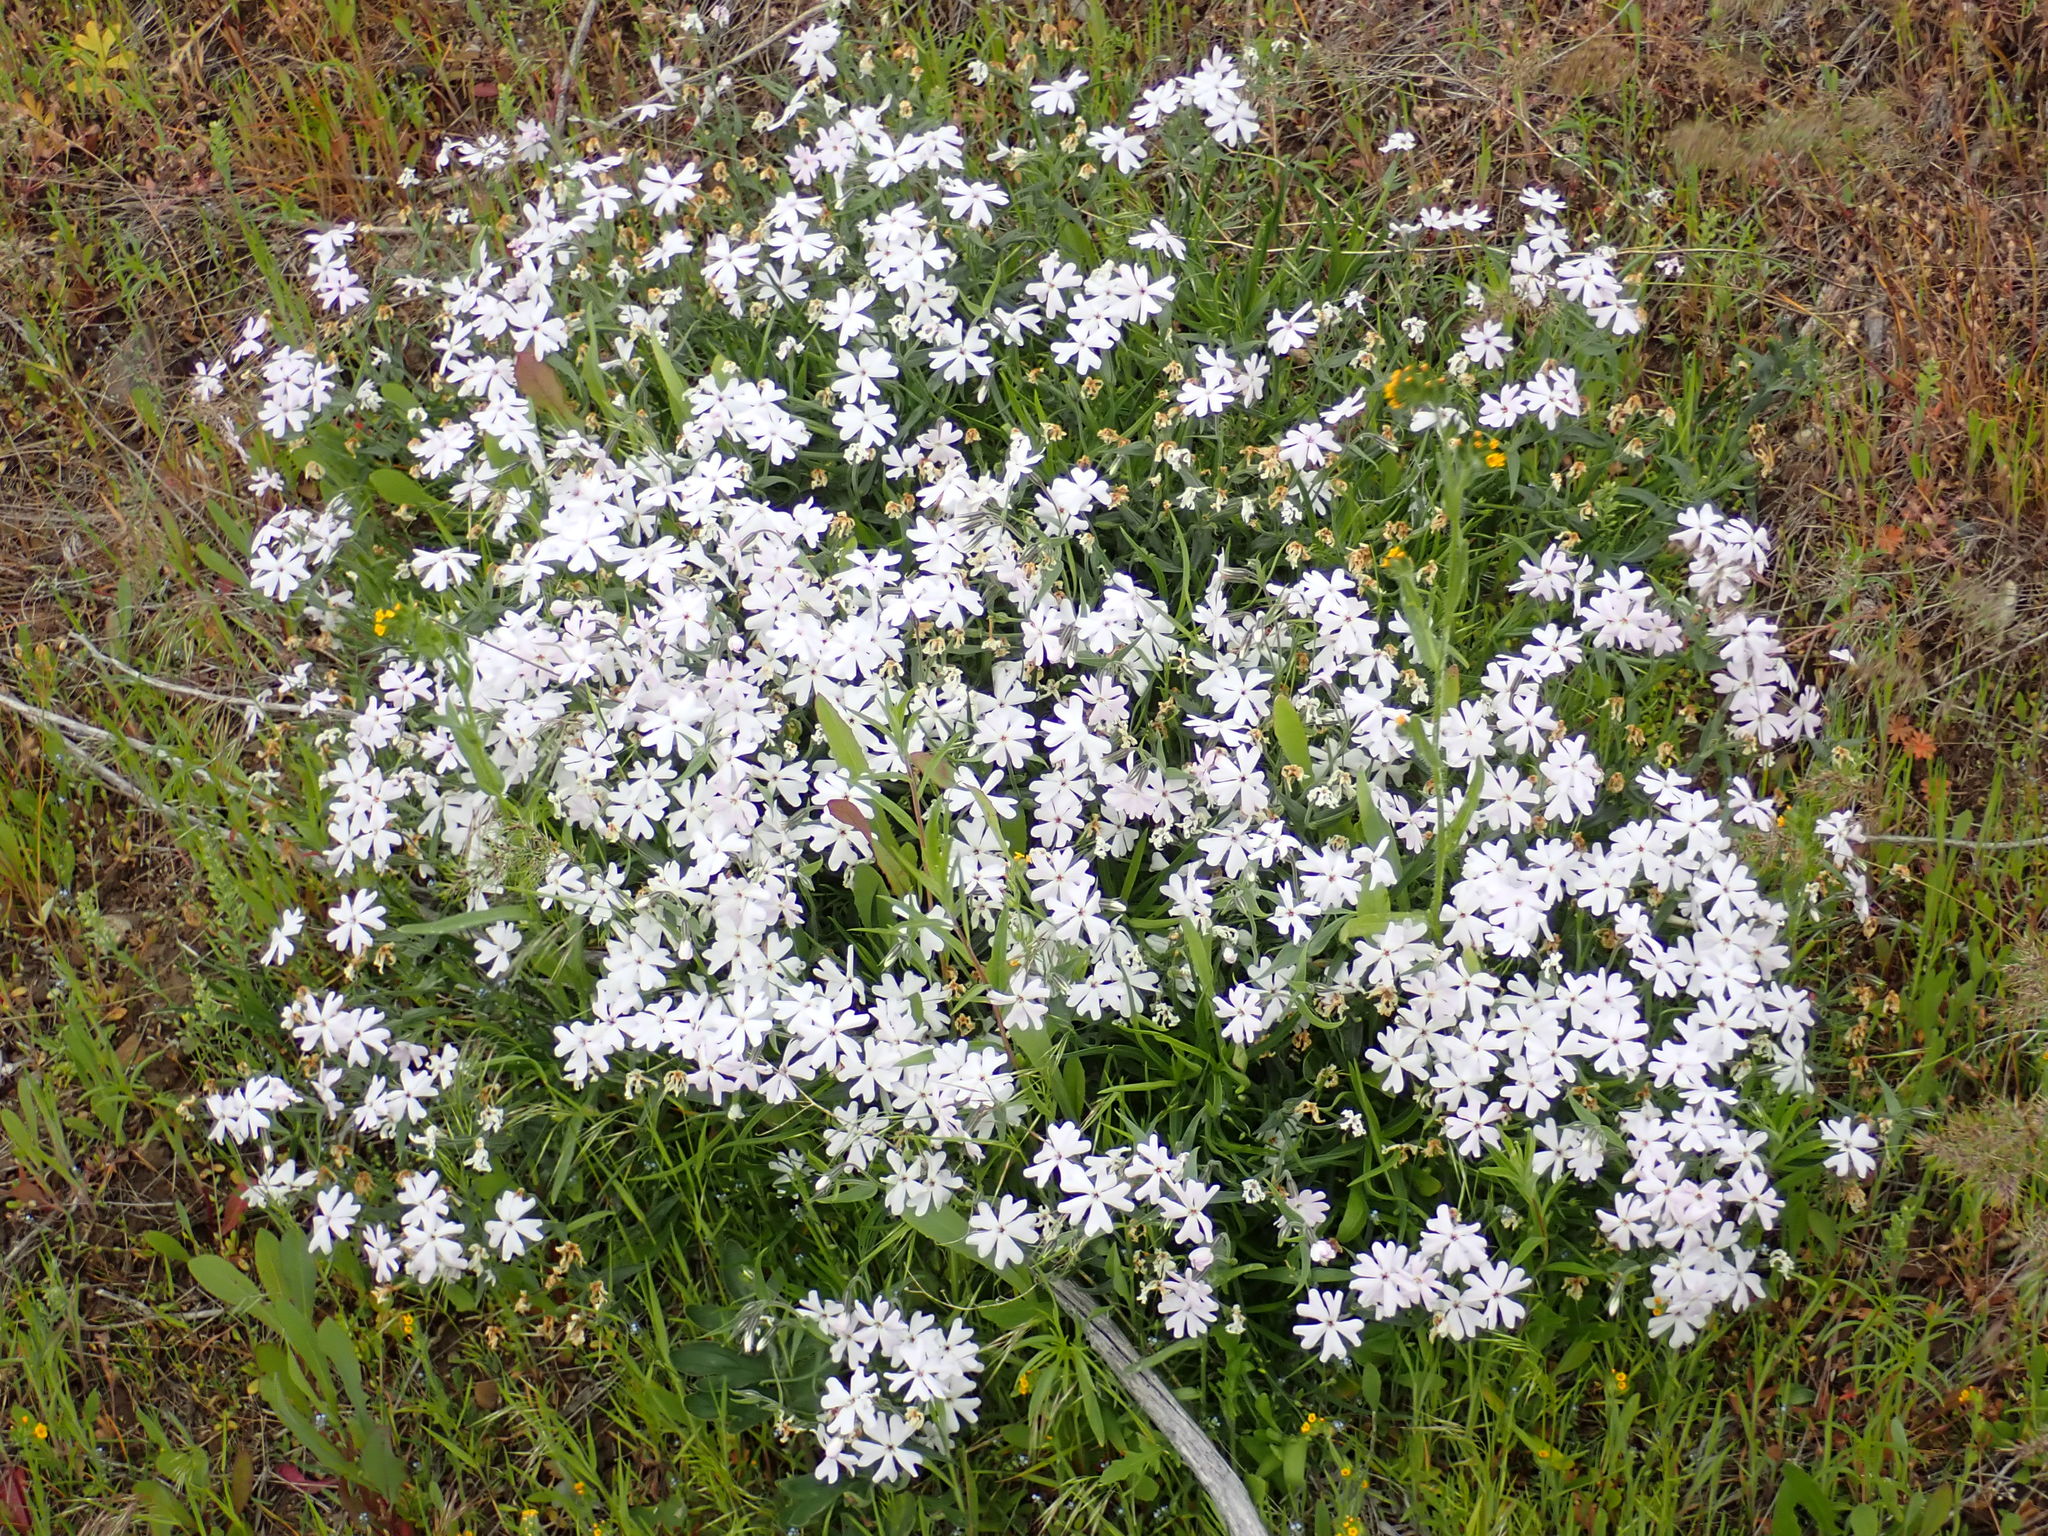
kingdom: Plantae
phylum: Tracheophyta
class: Magnoliopsida
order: Ericales
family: Polemoniaceae
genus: Phlox
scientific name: Phlox speciosa
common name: Bush phlox
